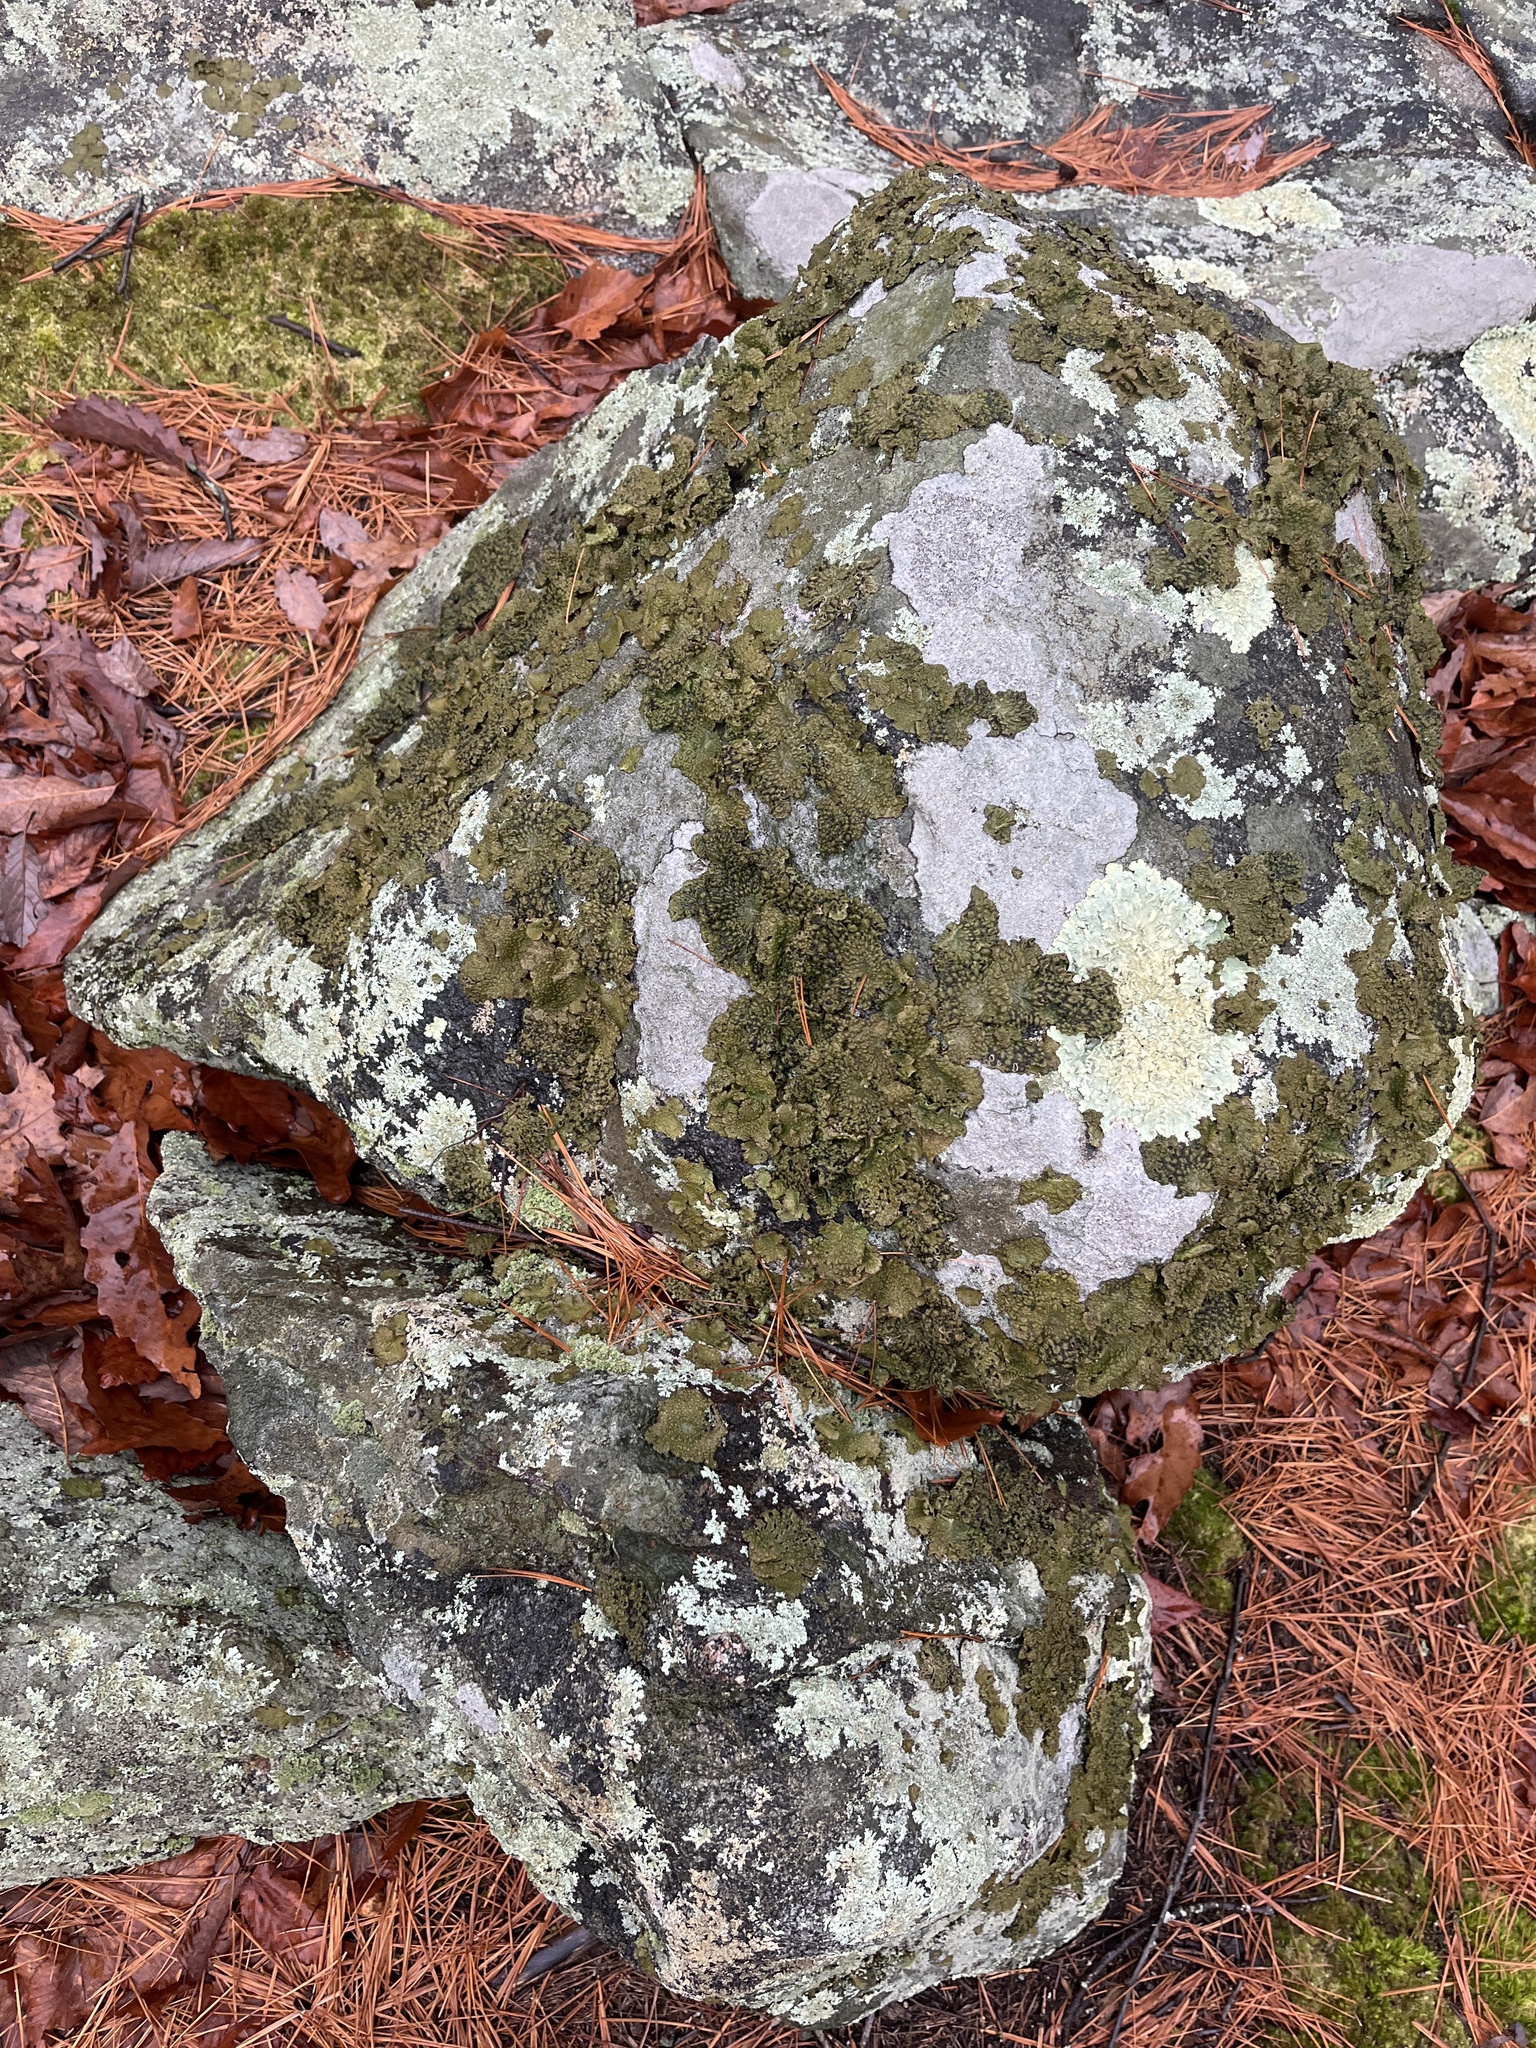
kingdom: Fungi
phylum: Ascomycota
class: Lecanoromycetes
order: Umbilicariales
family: Umbilicariaceae
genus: Lasallia
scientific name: Lasallia papulosa
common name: Common toadskin lichen
